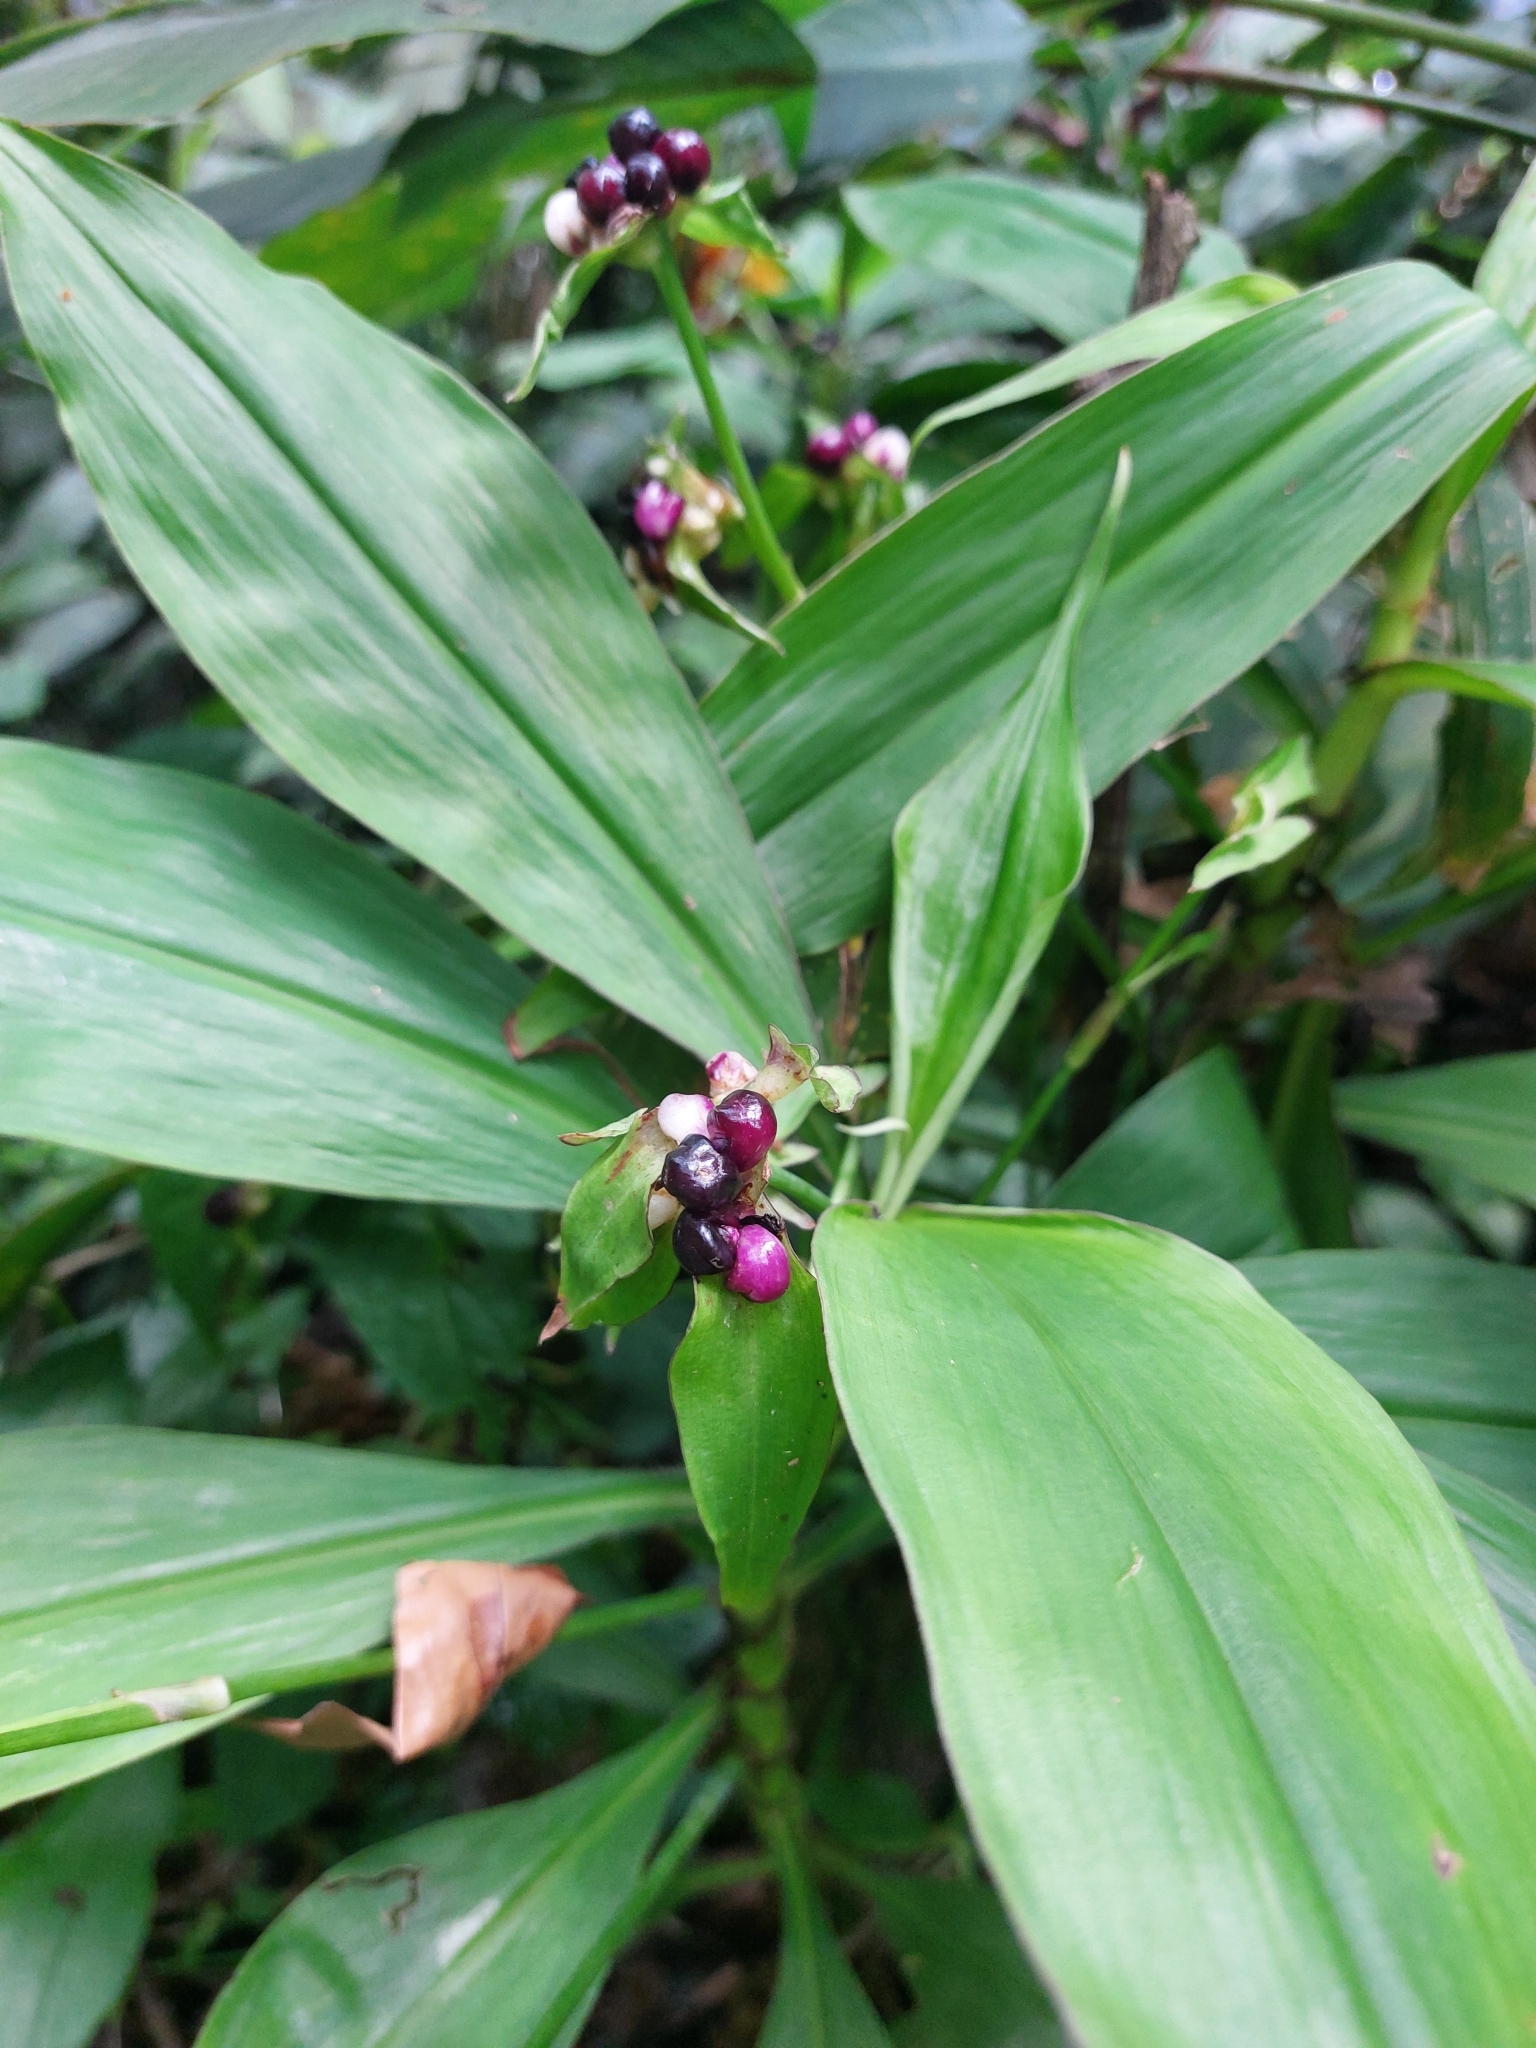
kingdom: Plantae
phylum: Tracheophyta
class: Liliopsida
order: Commelinales
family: Commelinaceae
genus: Tradescantia
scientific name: Tradescantia zanonia
